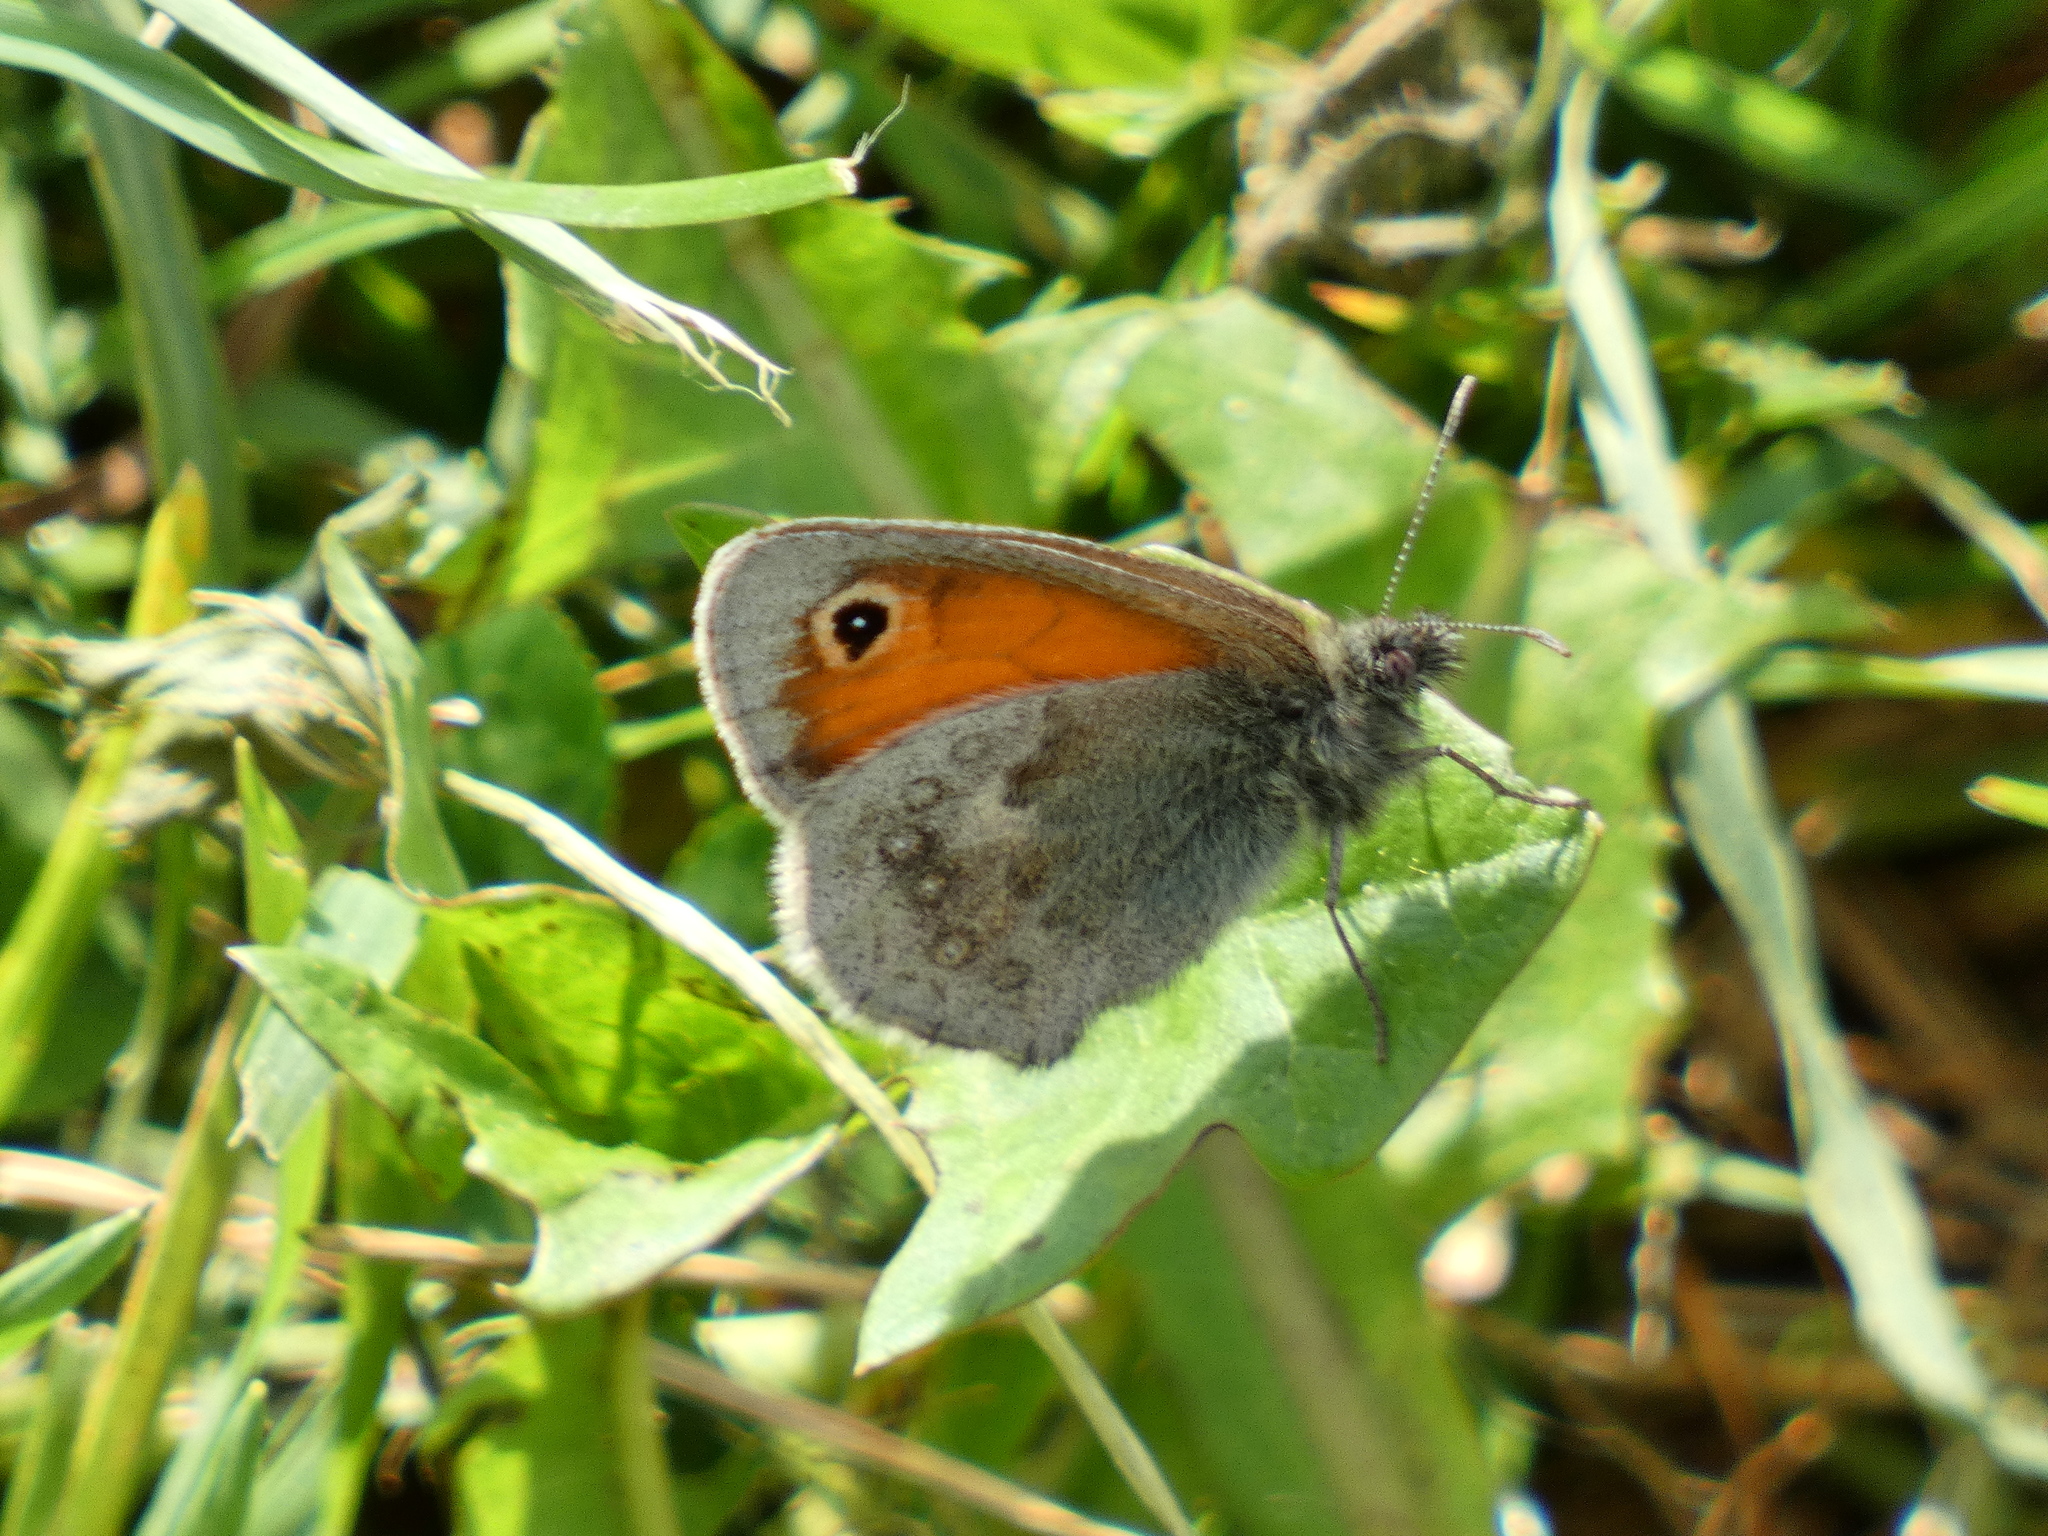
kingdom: Animalia
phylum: Arthropoda
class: Insecta
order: Lepidoptera
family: Nymphalidae
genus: Coenonympha
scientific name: Coenonympha pamphilus
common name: Small heath
